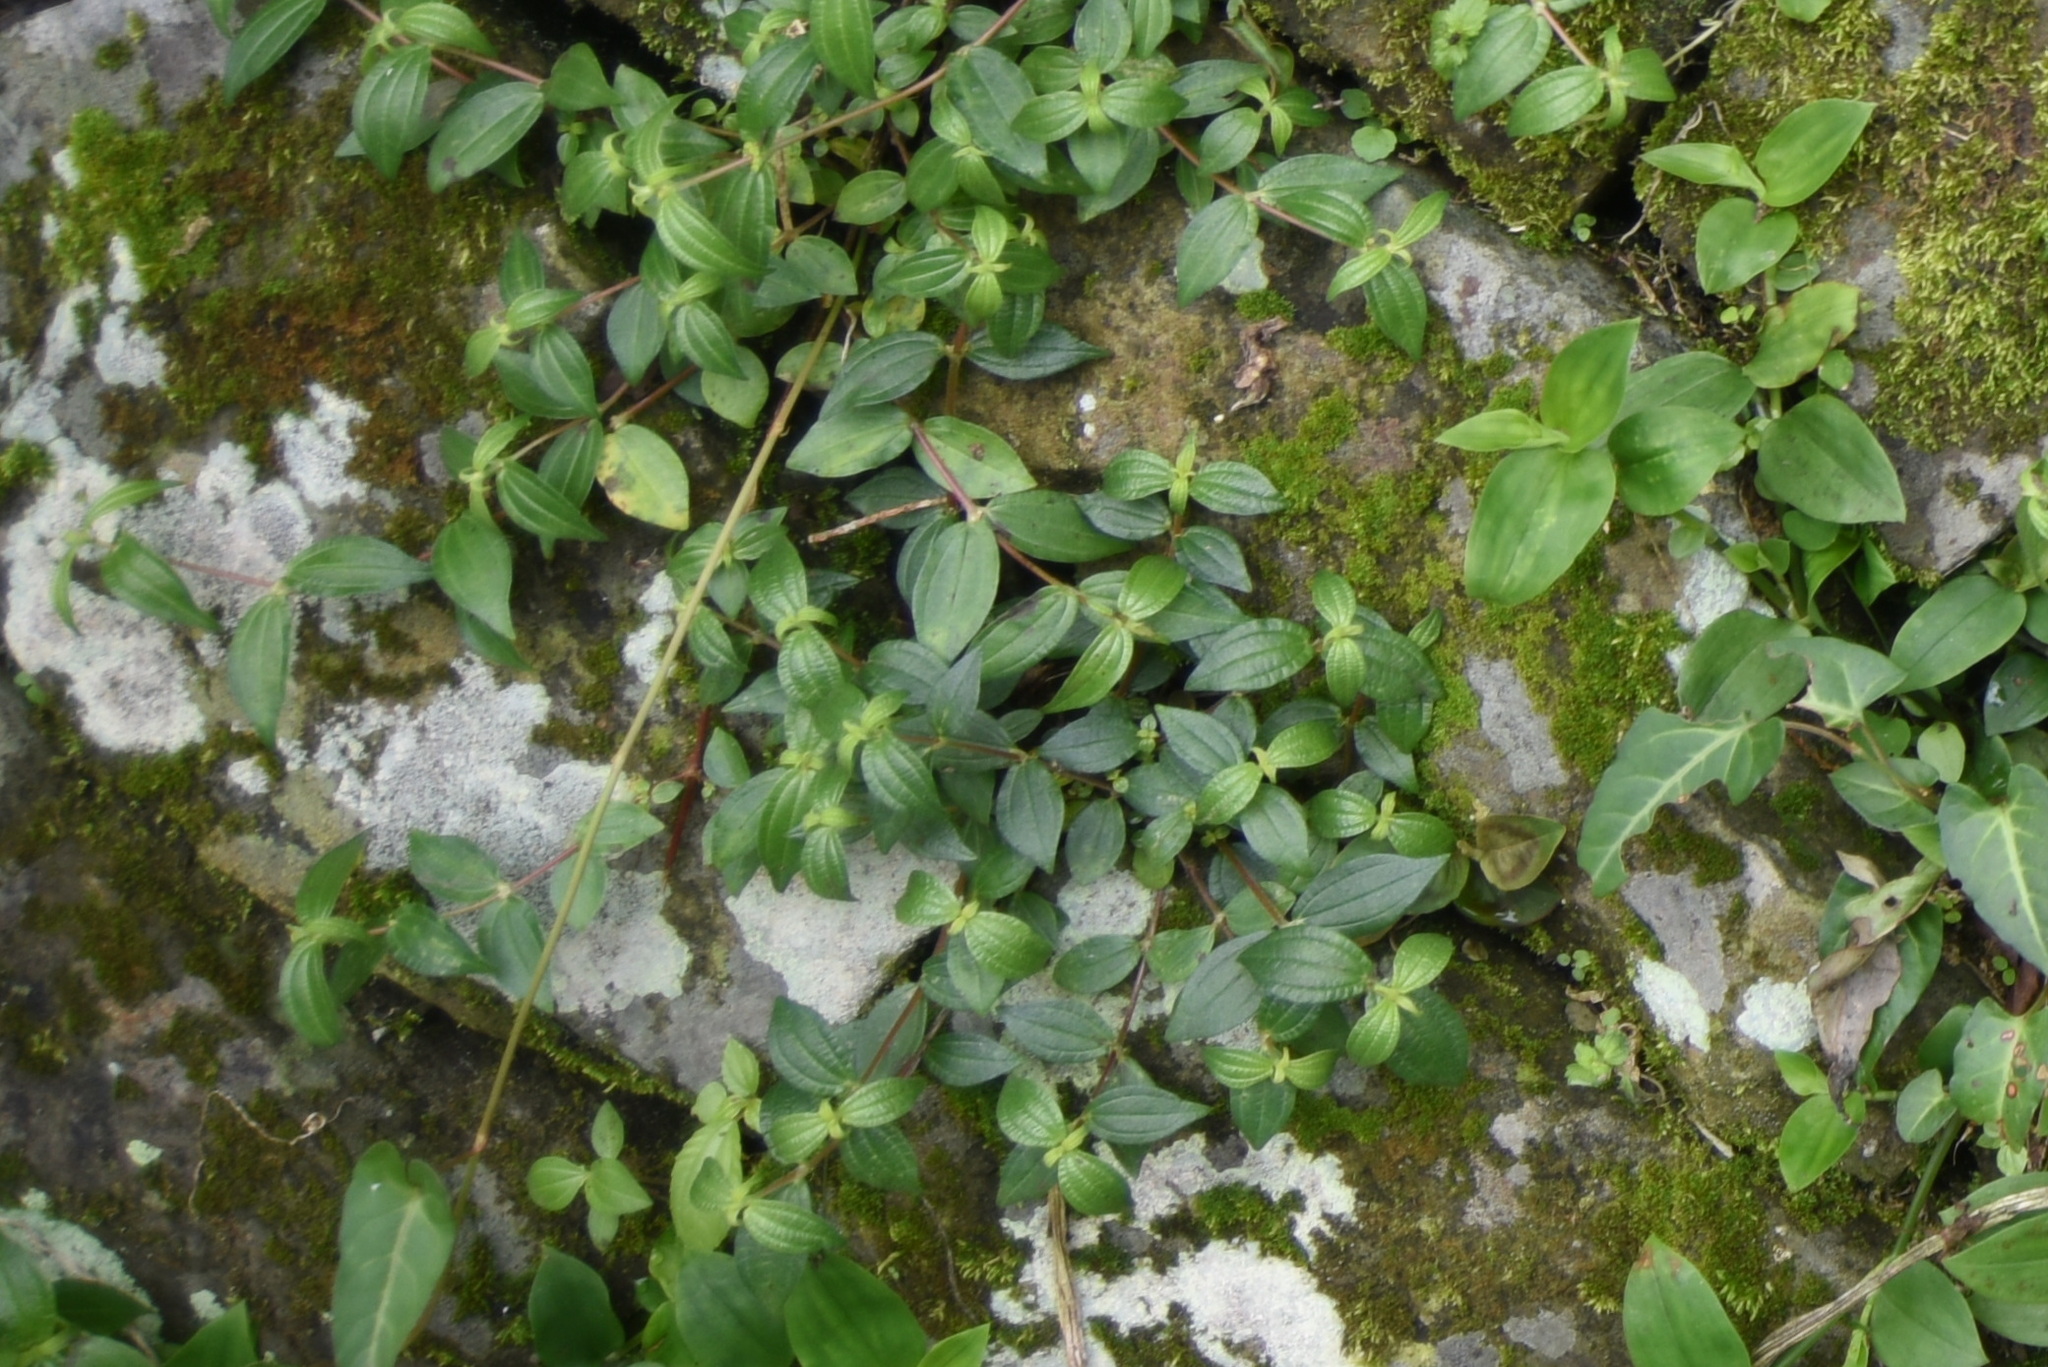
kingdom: Plantae
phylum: Tracheophyta
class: Magnoliopsida
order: Rosales
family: Urticaceae
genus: Gonostegia
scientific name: Gonostegia triandra
